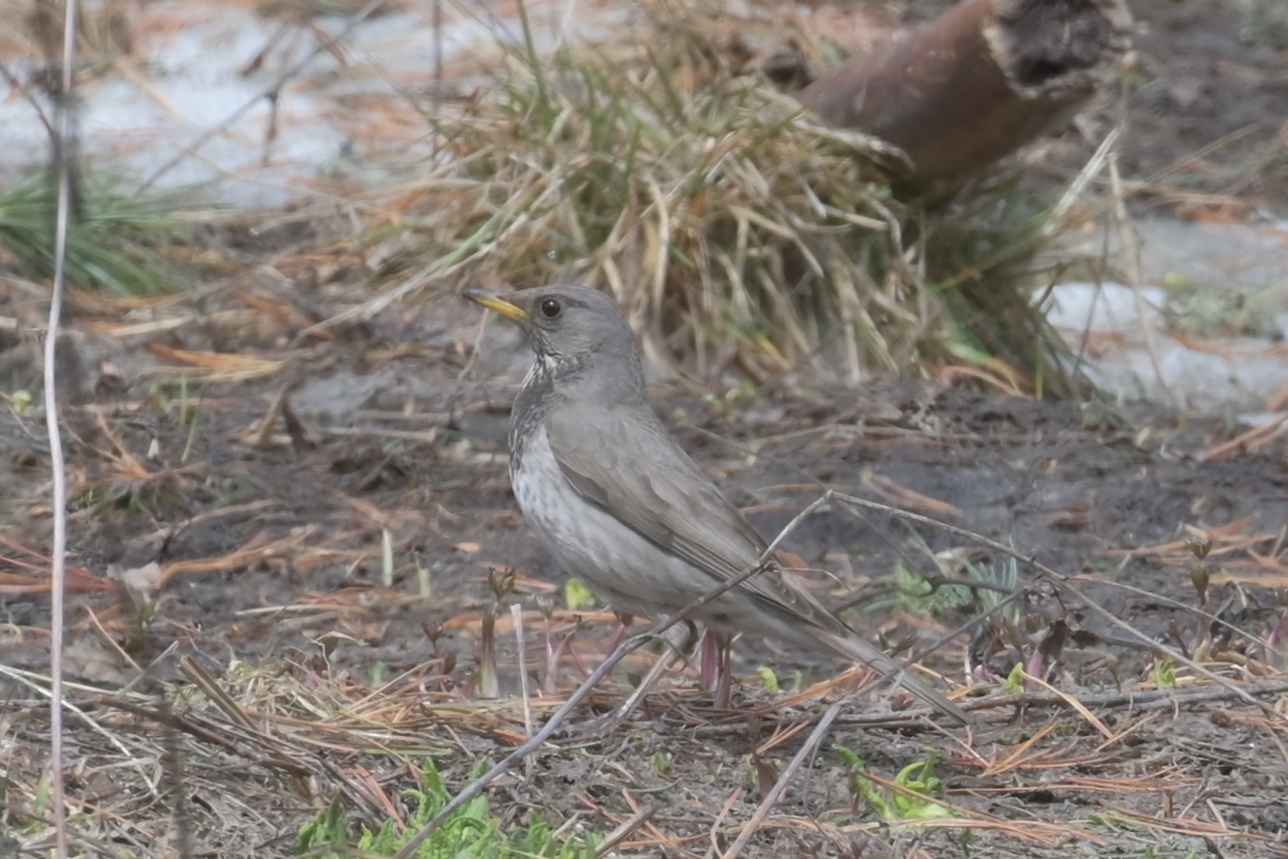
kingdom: Animalia
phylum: Chordata
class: Aves
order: Passeriformes
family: Turdidae
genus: Turdus
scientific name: Turdus atrogularis
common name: Black-throated thrush
